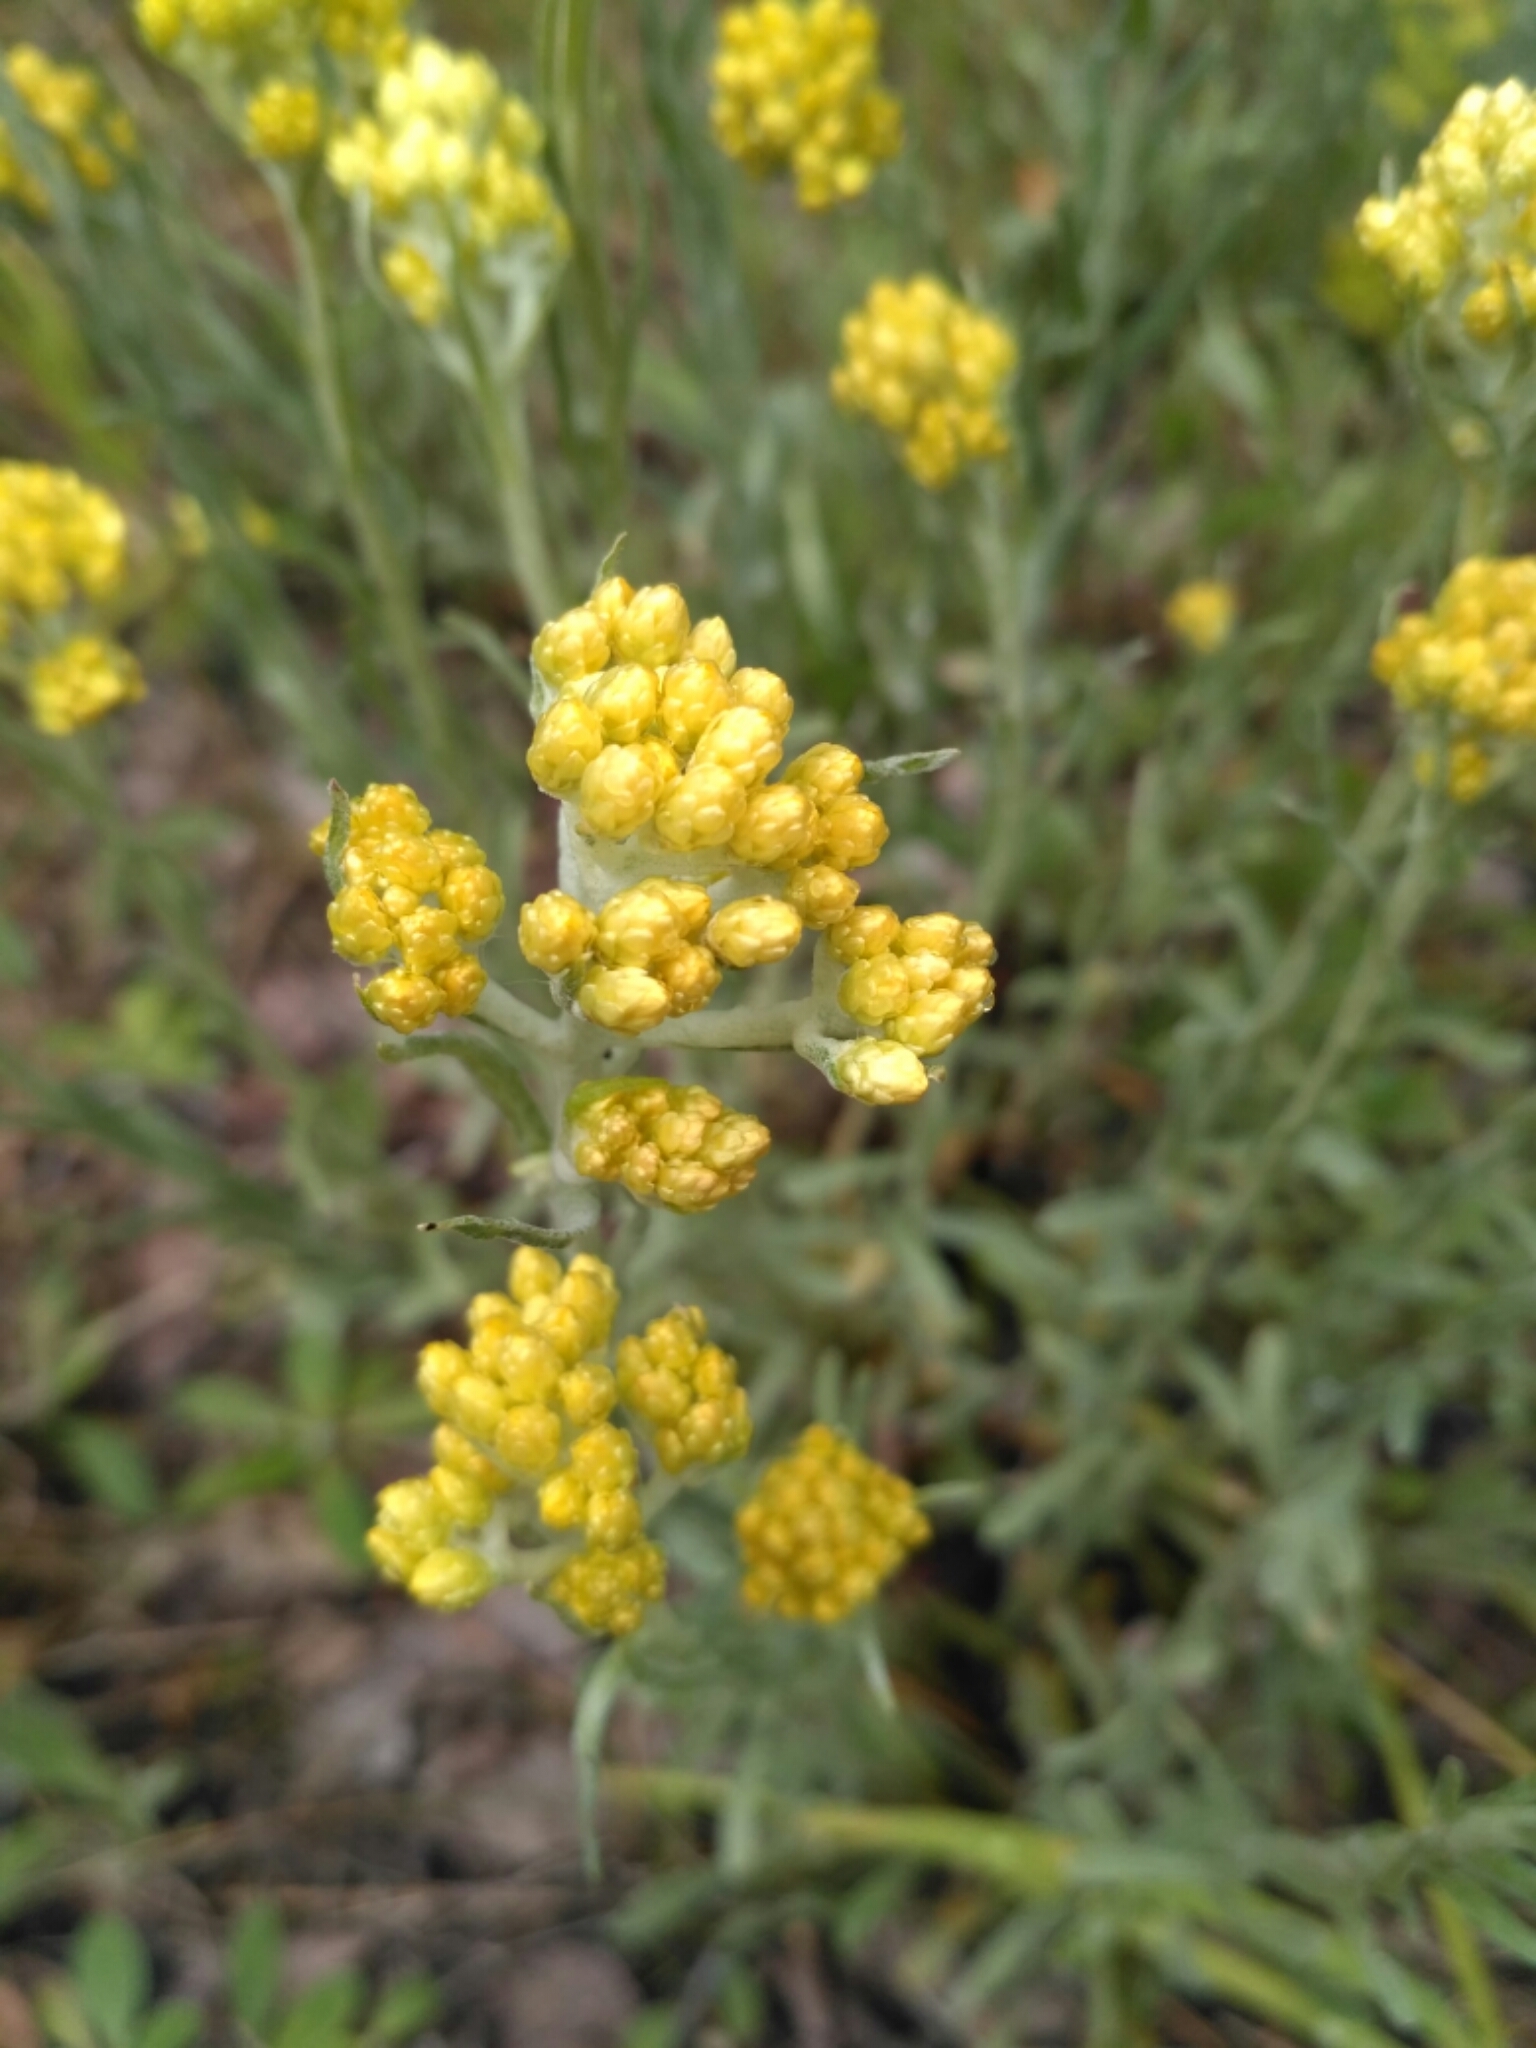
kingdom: Plantae
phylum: Tracheophyta
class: Magnoliopsida
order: Asterales
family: Asteraceae
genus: Helichrysum
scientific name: Helichrysum arenarium
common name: Strawflower
